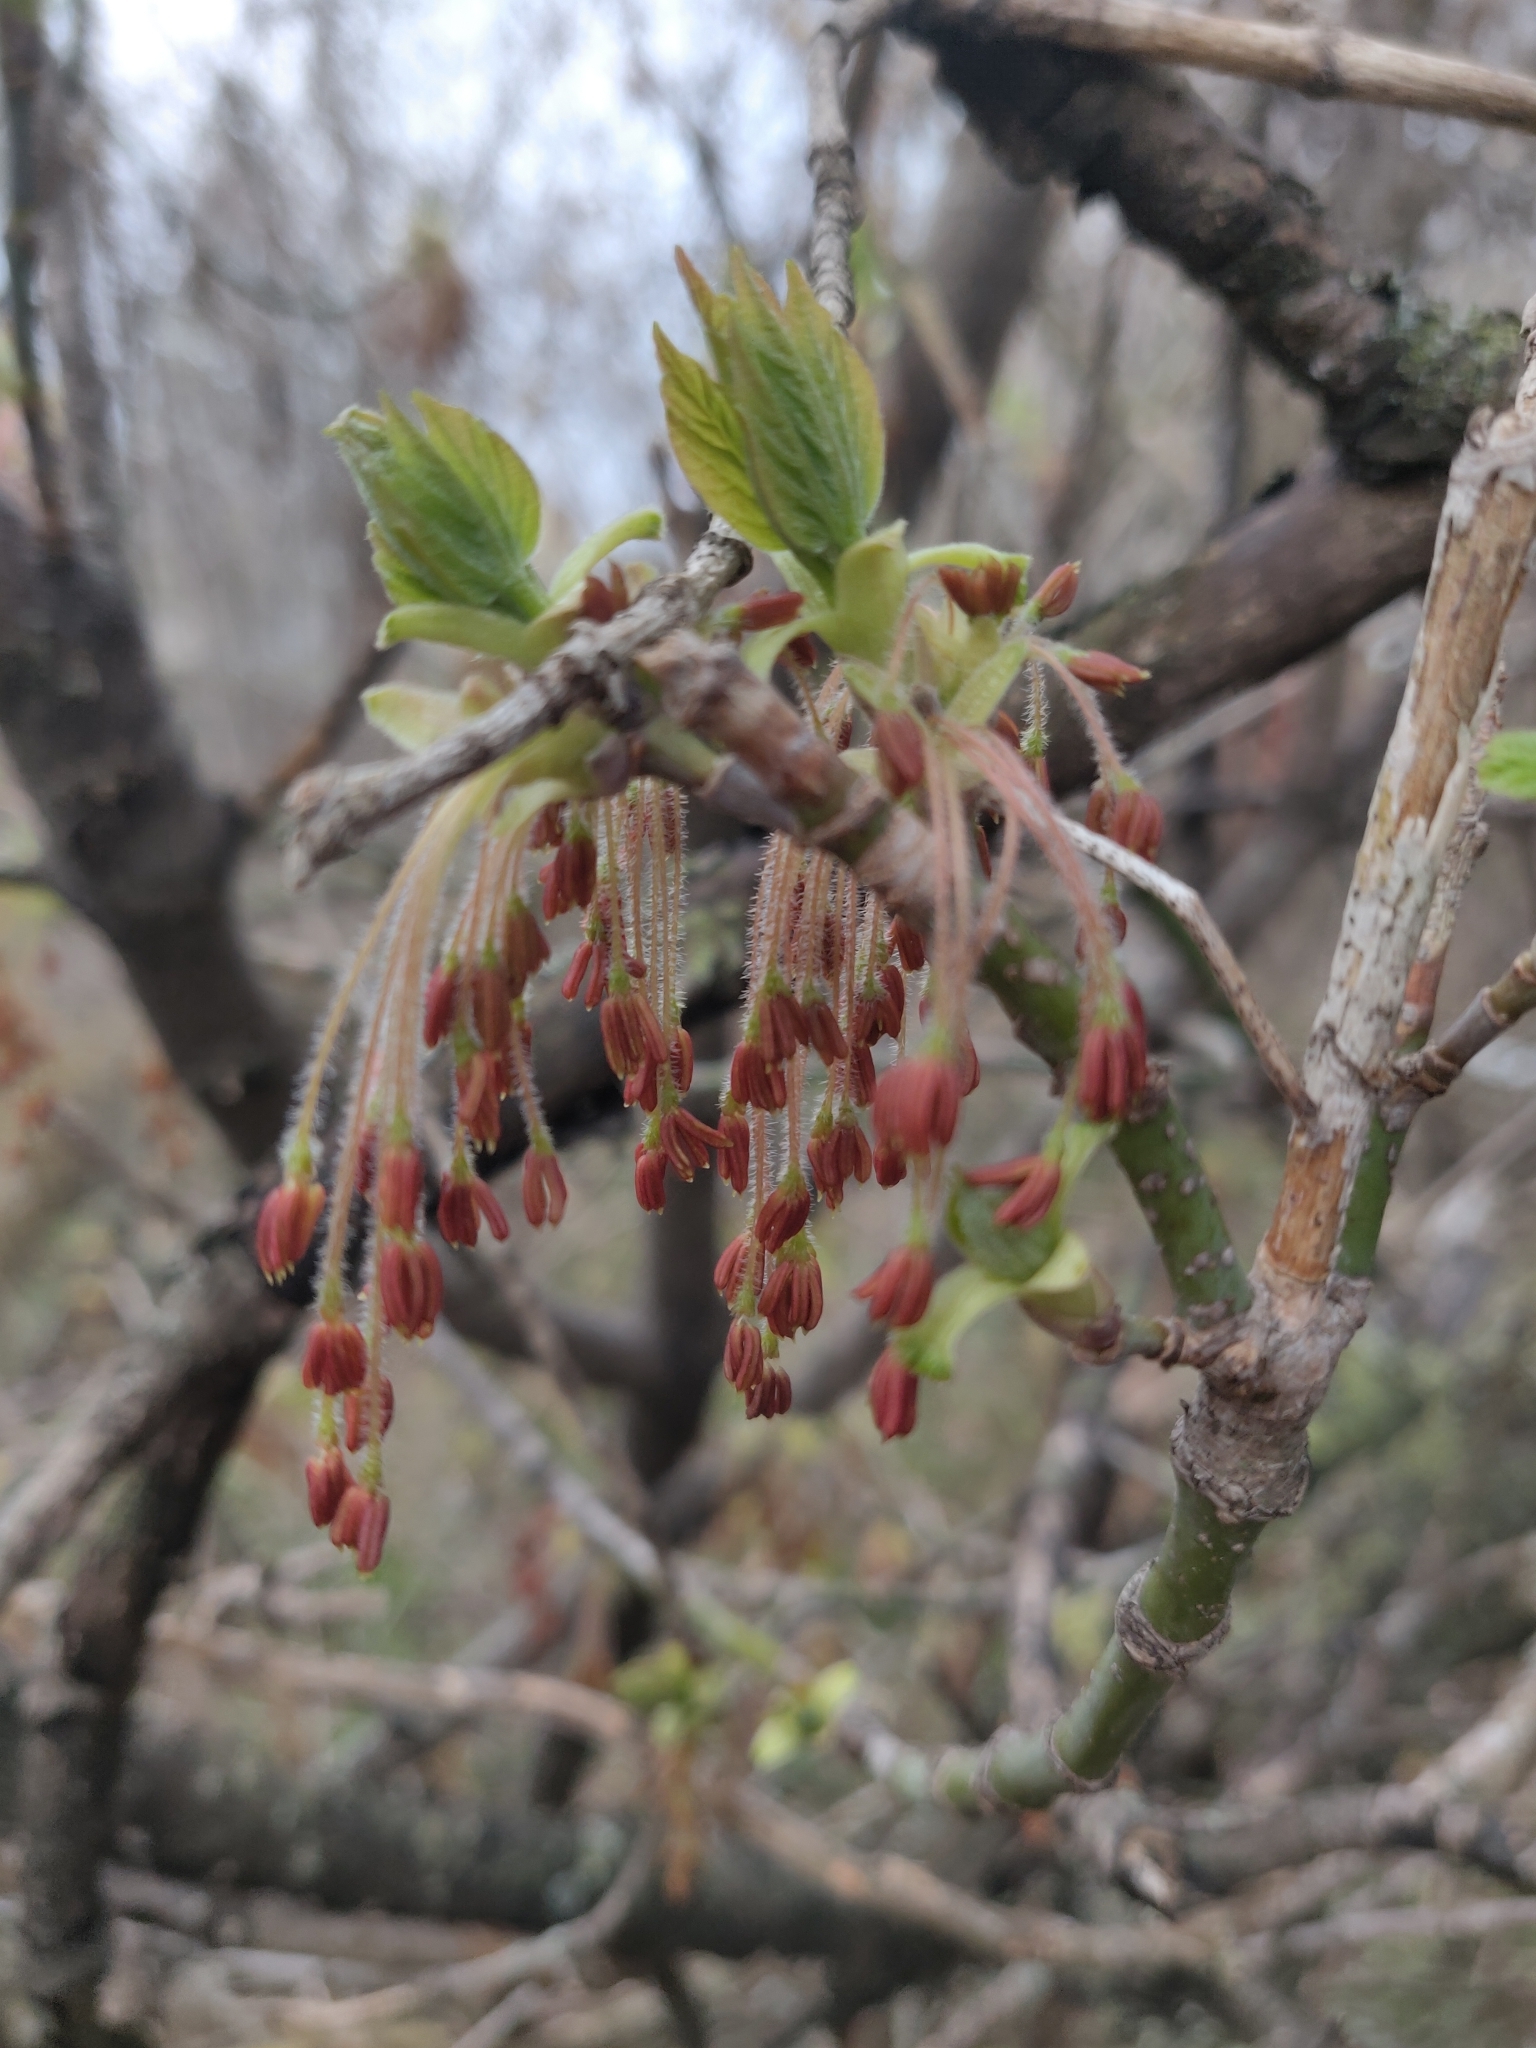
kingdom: Plantae
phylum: Tracheophyta
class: Magnoliopsida
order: Sapindales
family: Sapindaceae
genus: Acer
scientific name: Acer negundo
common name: Ashleaf maple
